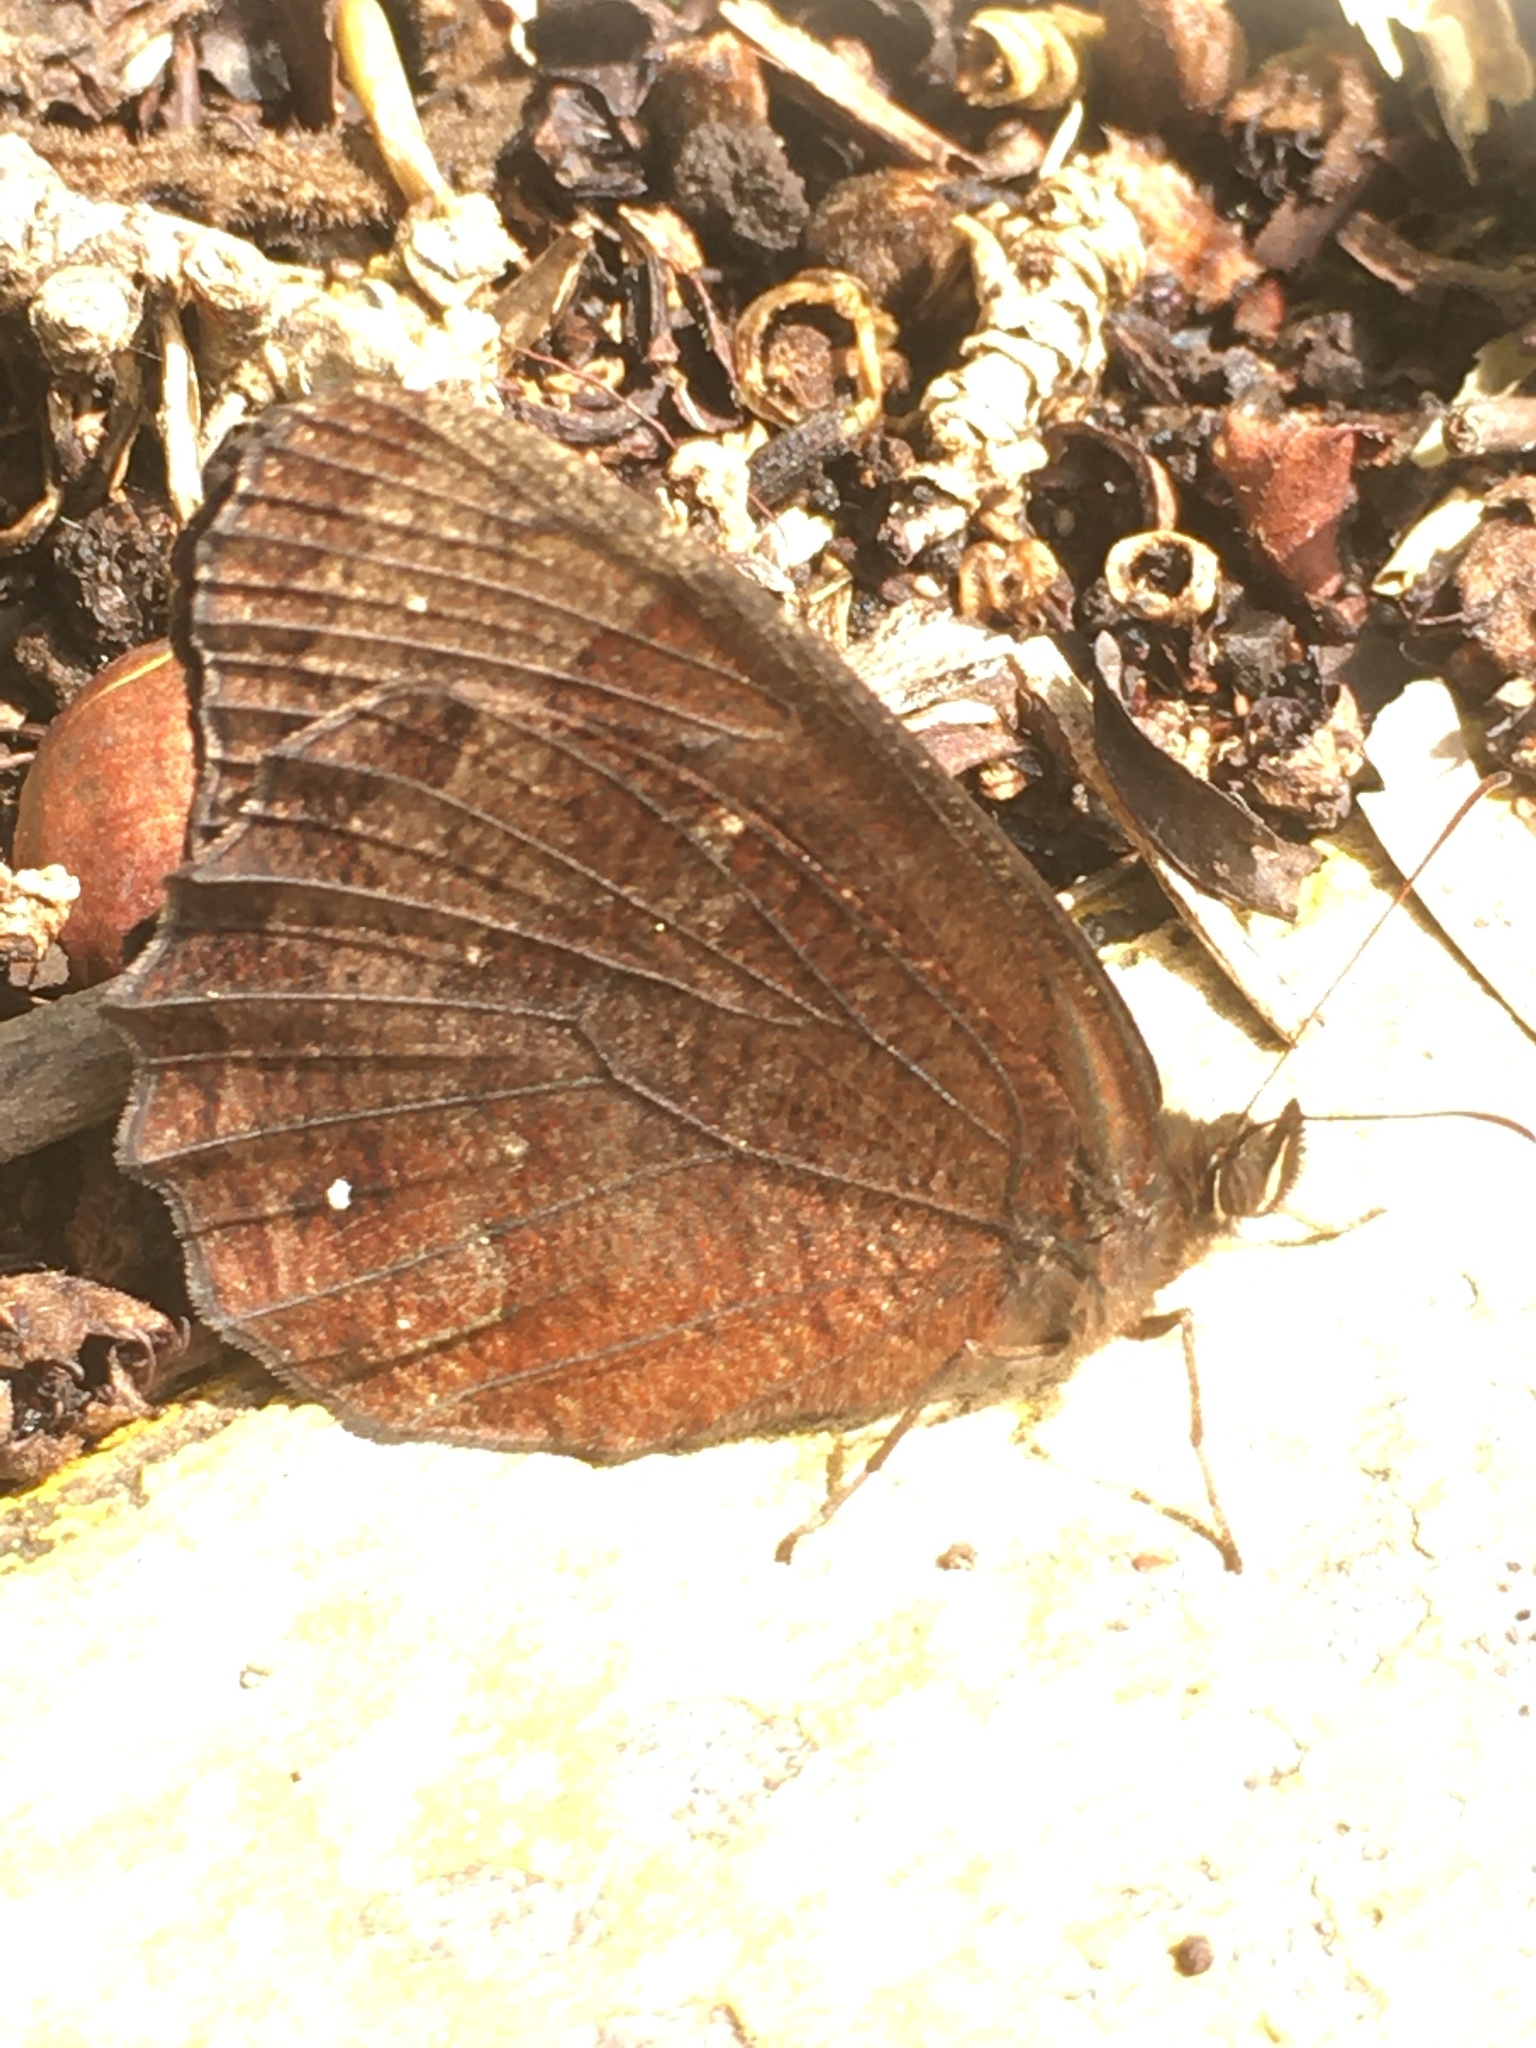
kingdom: Animalia
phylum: Arthropoda
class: Insecta
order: Lepidoptera
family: Nymphalidae
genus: Pedaliodes
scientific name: Pedaliodes pisonia
